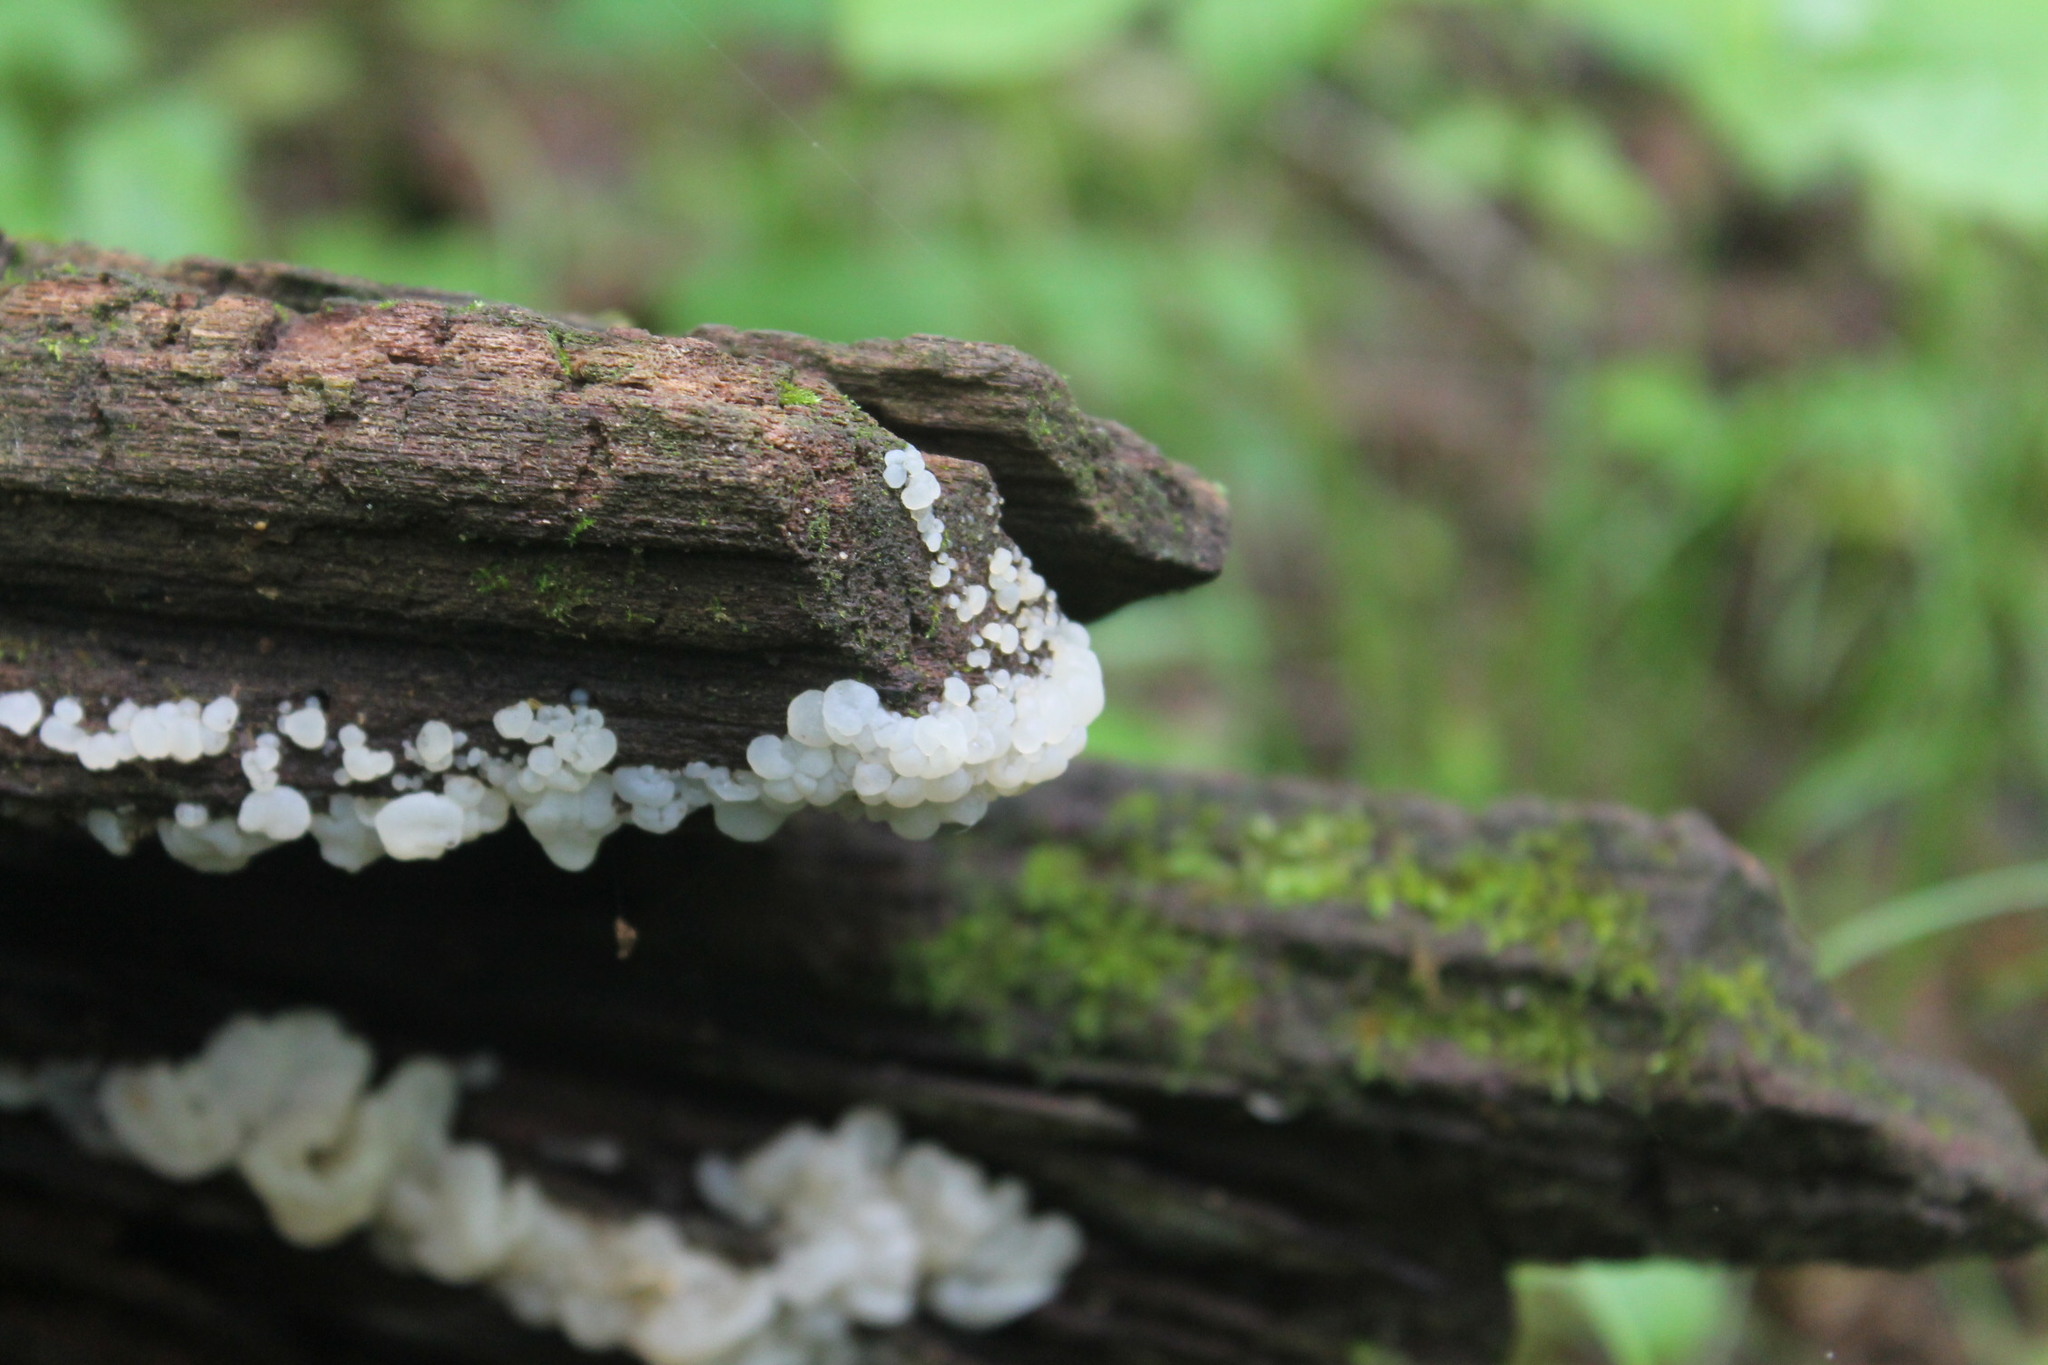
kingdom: Fungi
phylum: Basidiomycota
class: Agaricomycetes
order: Auriculariales
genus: Ductifera
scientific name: Ductifera pululahuana
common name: White jelly fungus
